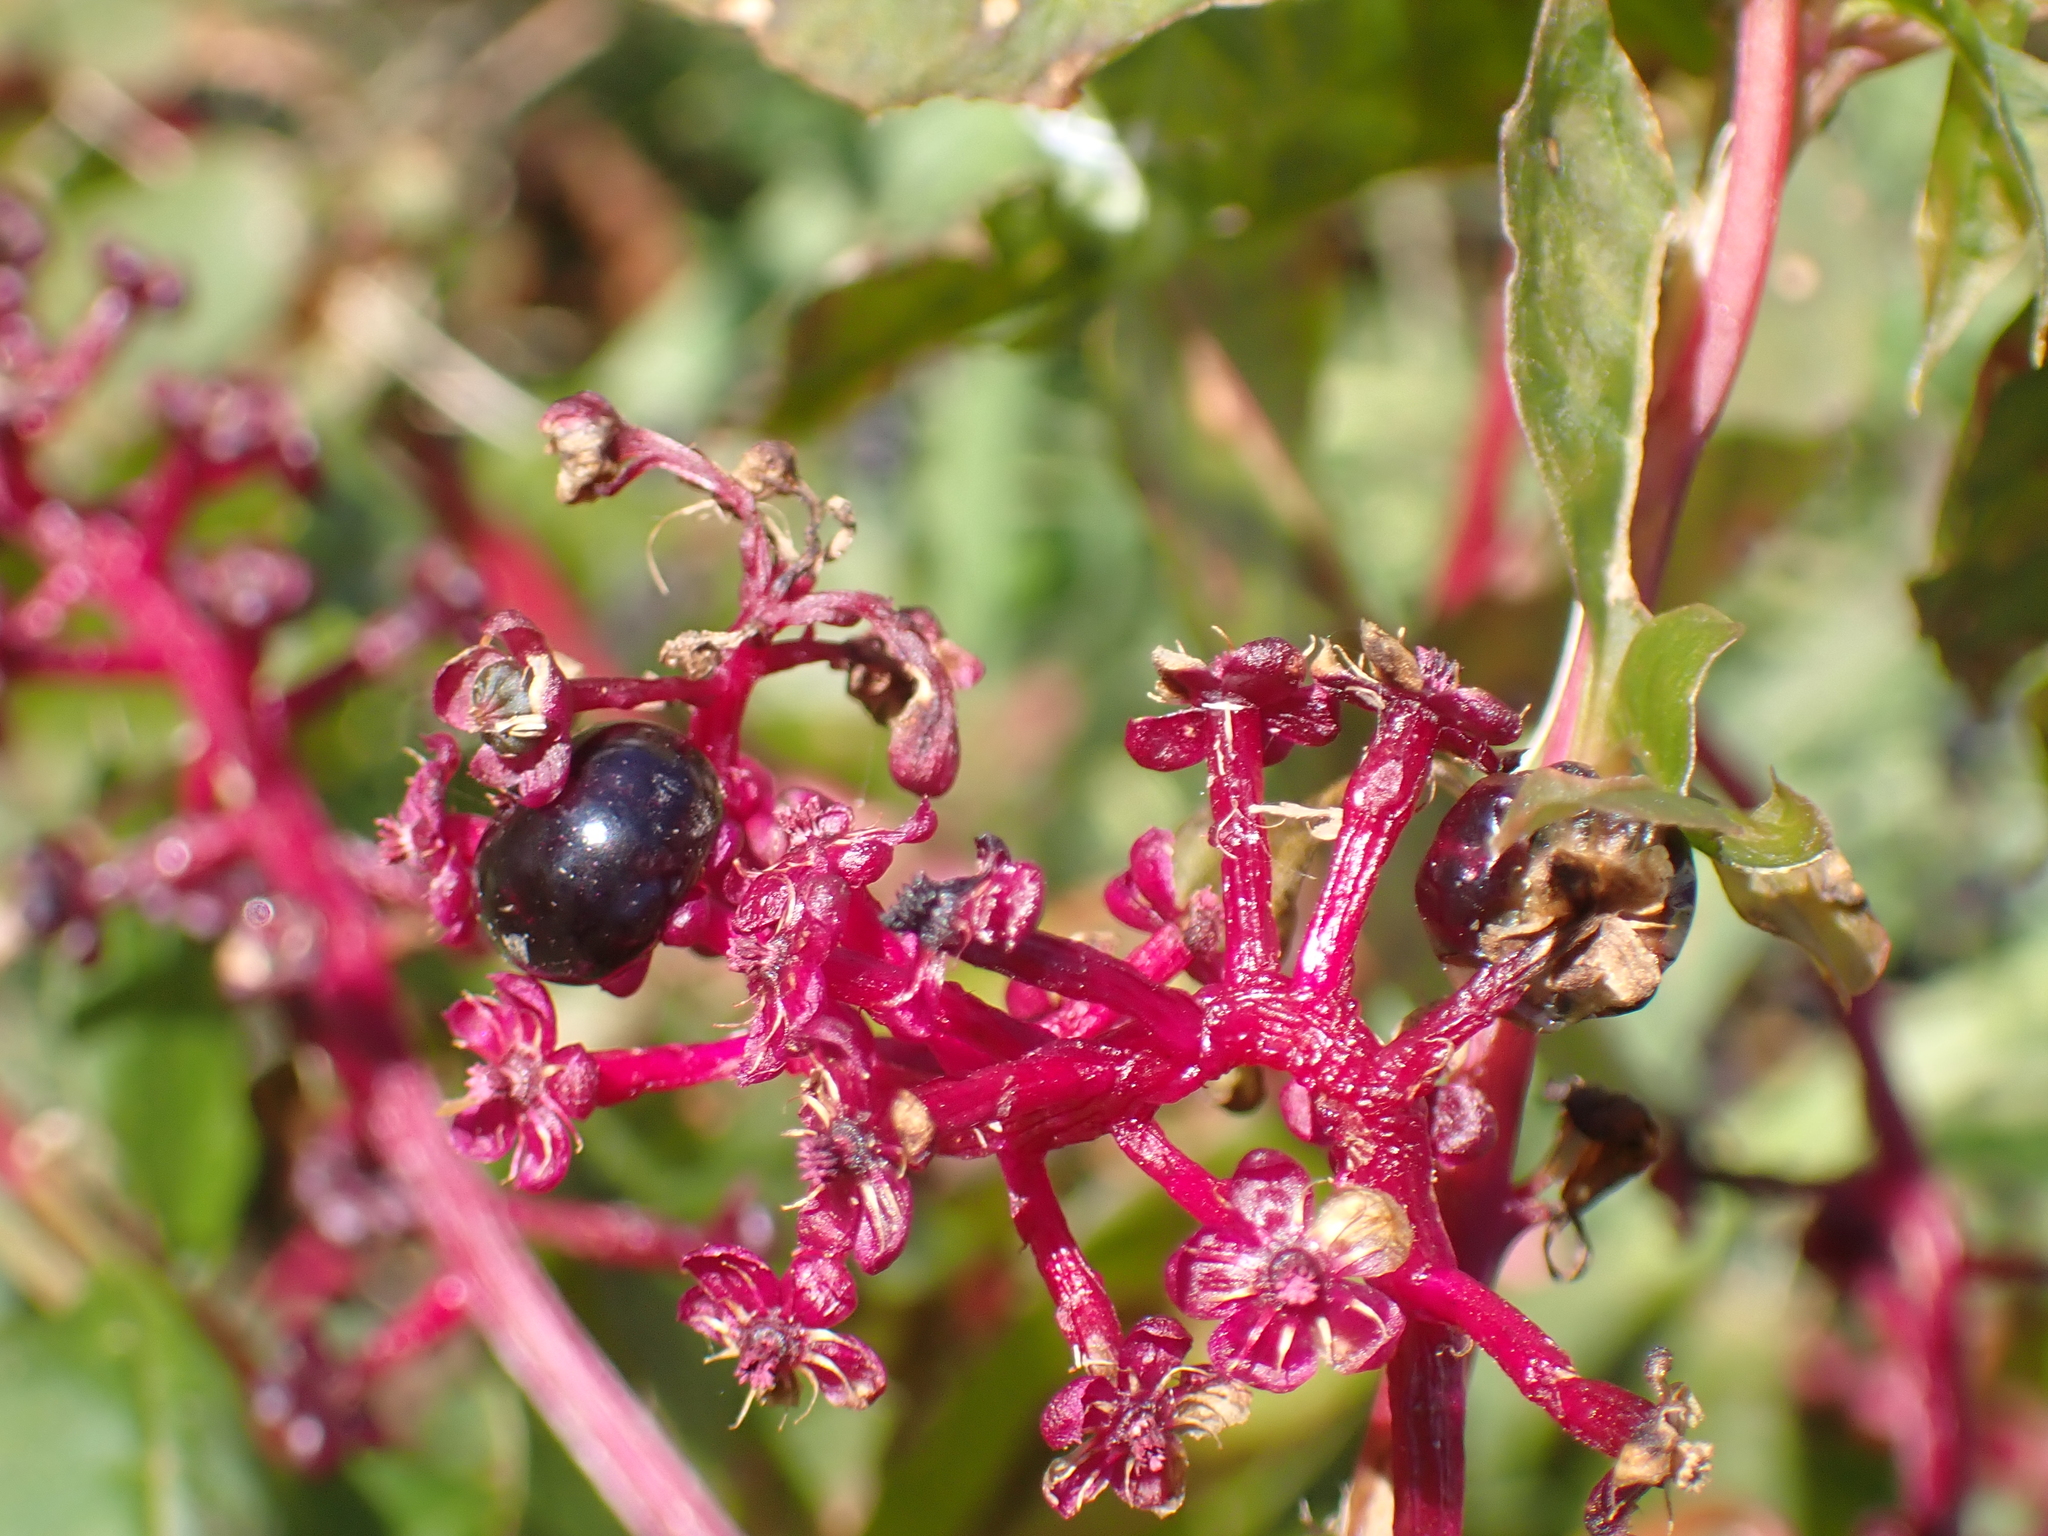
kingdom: Plantae
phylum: Tracheophyta
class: Magnoliopsida
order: Caryophyllales
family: Phytolaccaceae
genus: Phytolacca
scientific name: Phytolacca americana
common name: American pokeweed
